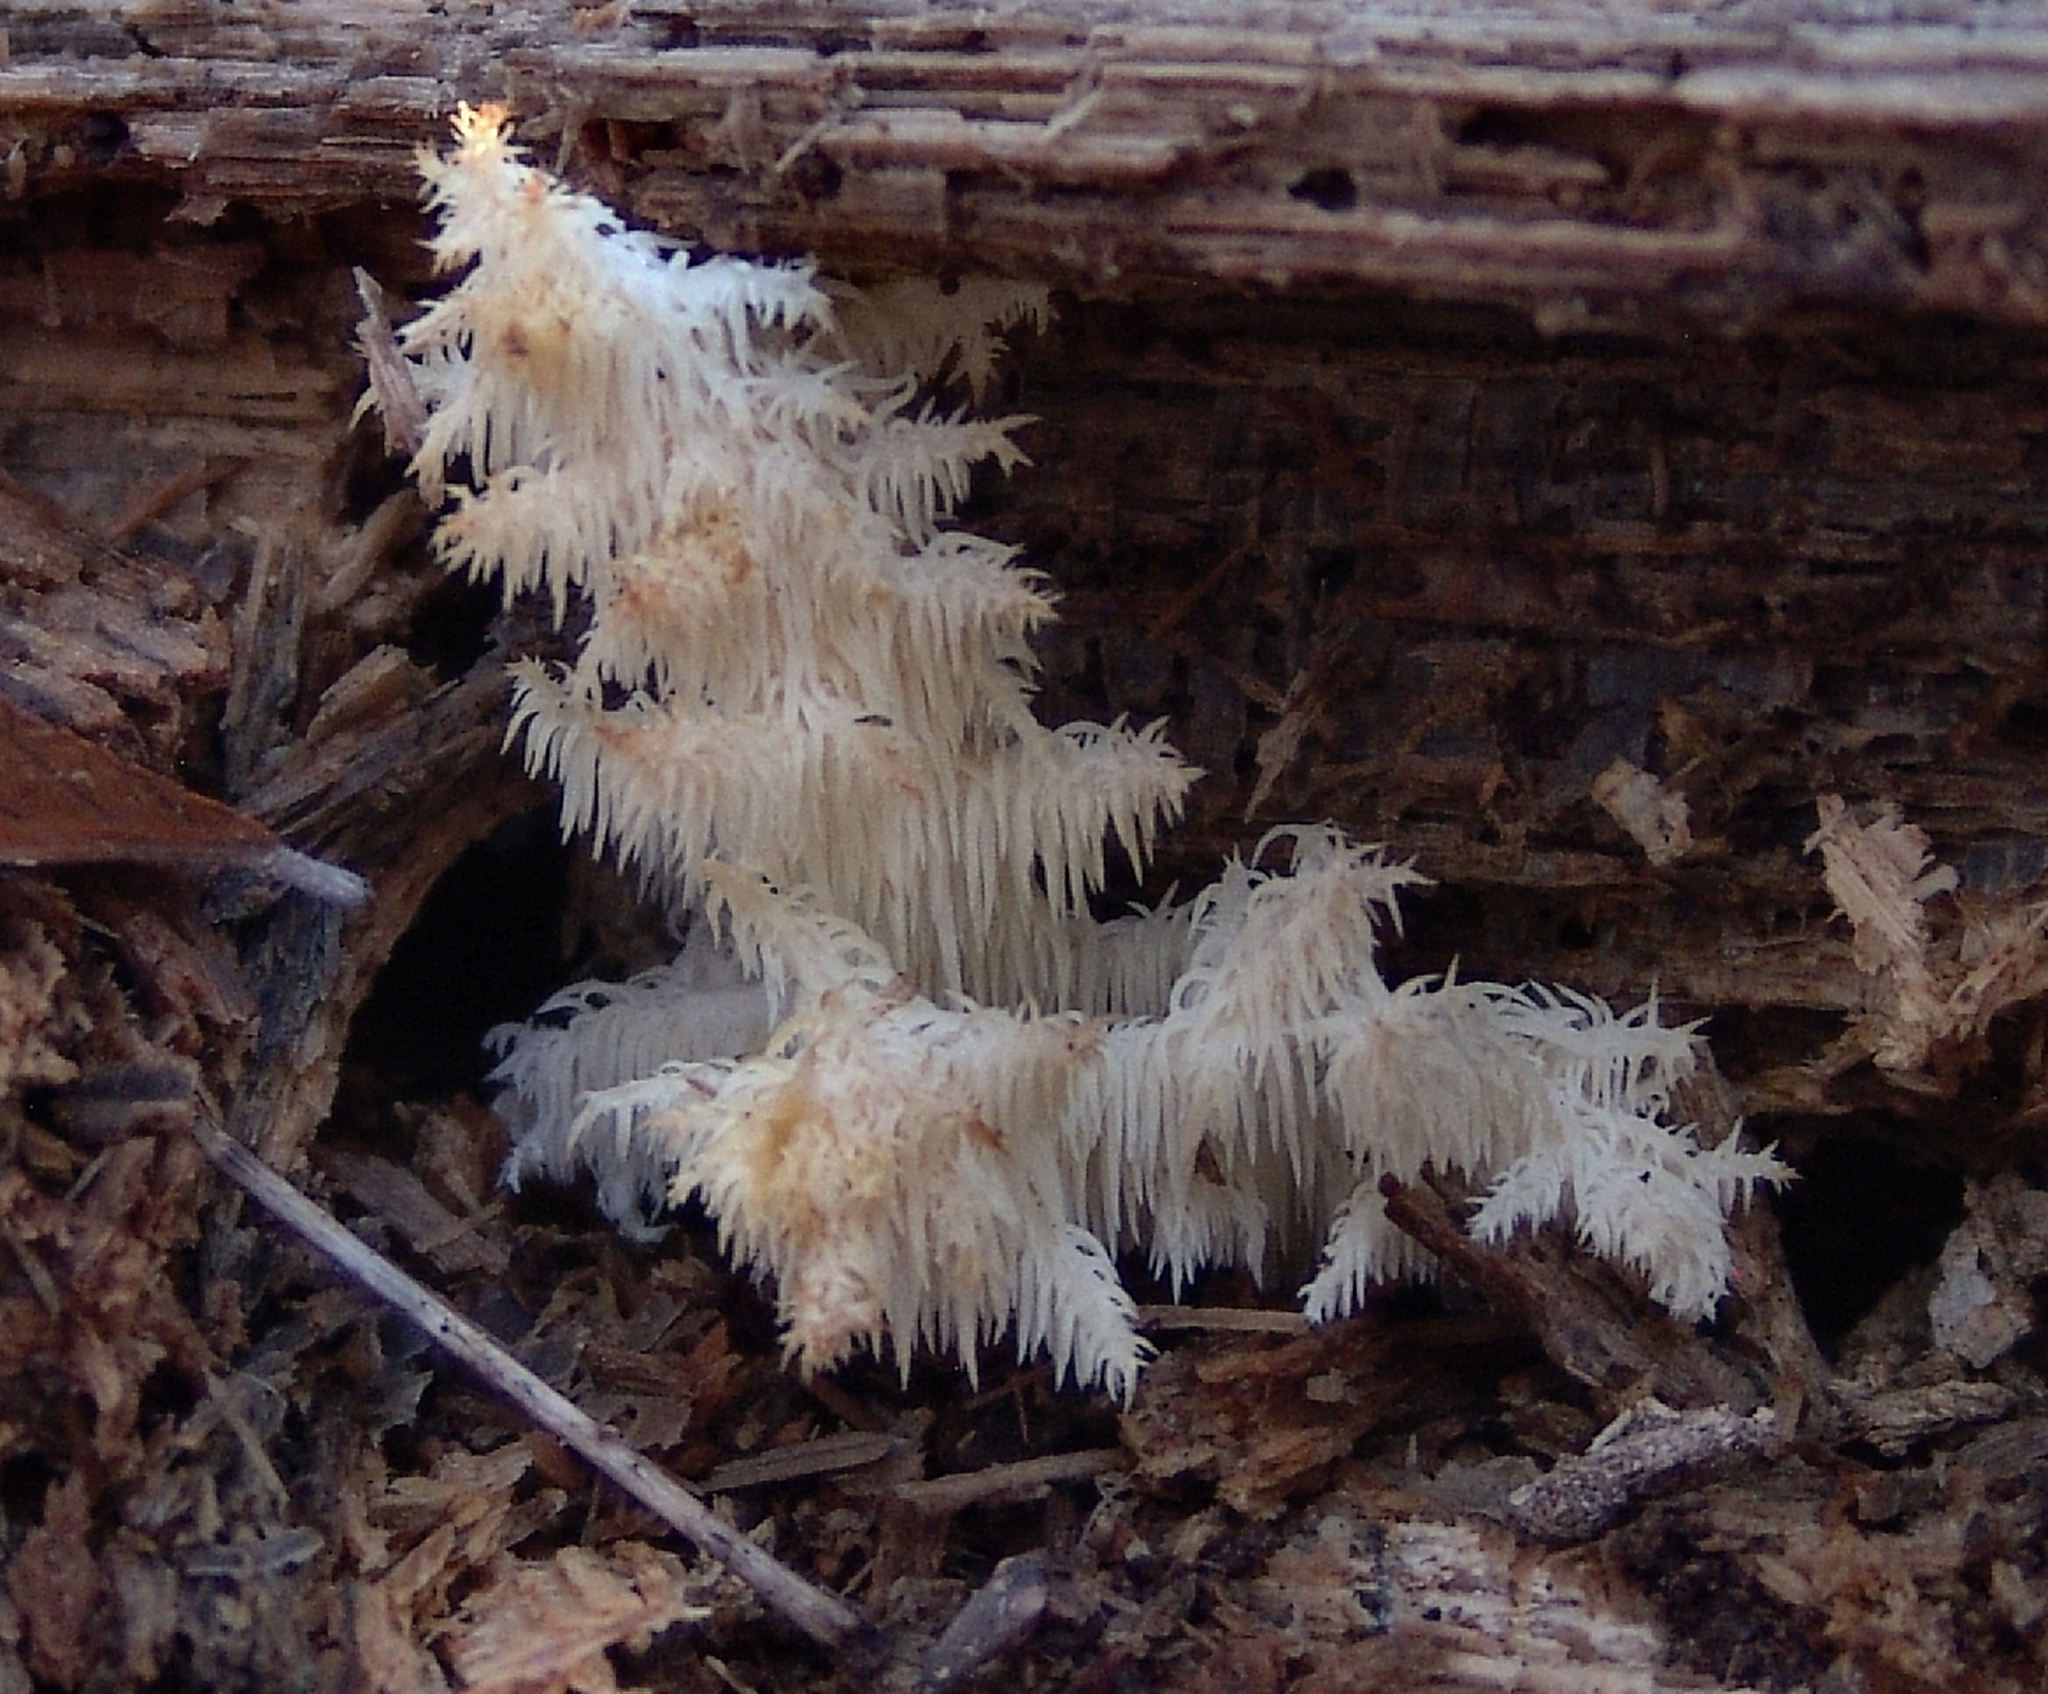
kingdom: Fungi
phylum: Basidiomycota
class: Agaricomycetes
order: Russulales
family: Hericiaceae
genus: Hericium
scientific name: Hericium coralloides
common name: Coral tooth
